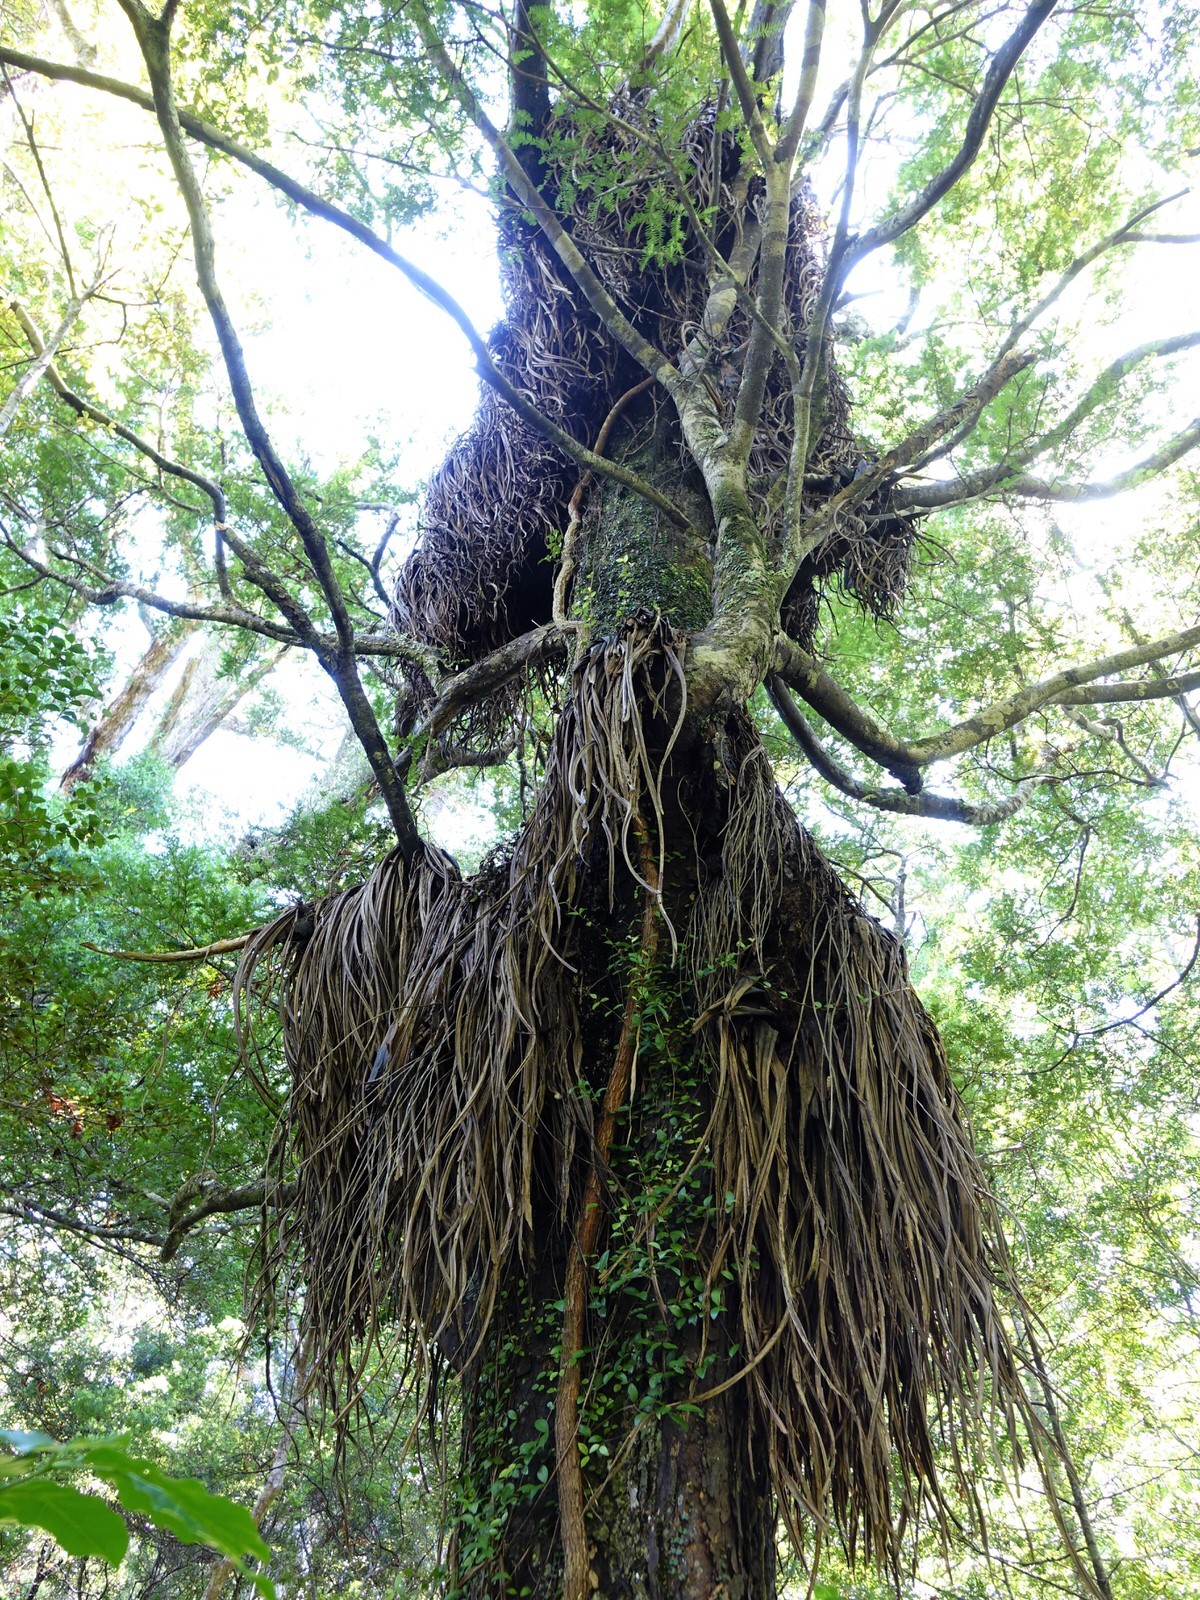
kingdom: Plantae
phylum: Tracheophyta
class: Liliopsida
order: Asparagales
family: Asteliaceae
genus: Astelia
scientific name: Astelia hastata
